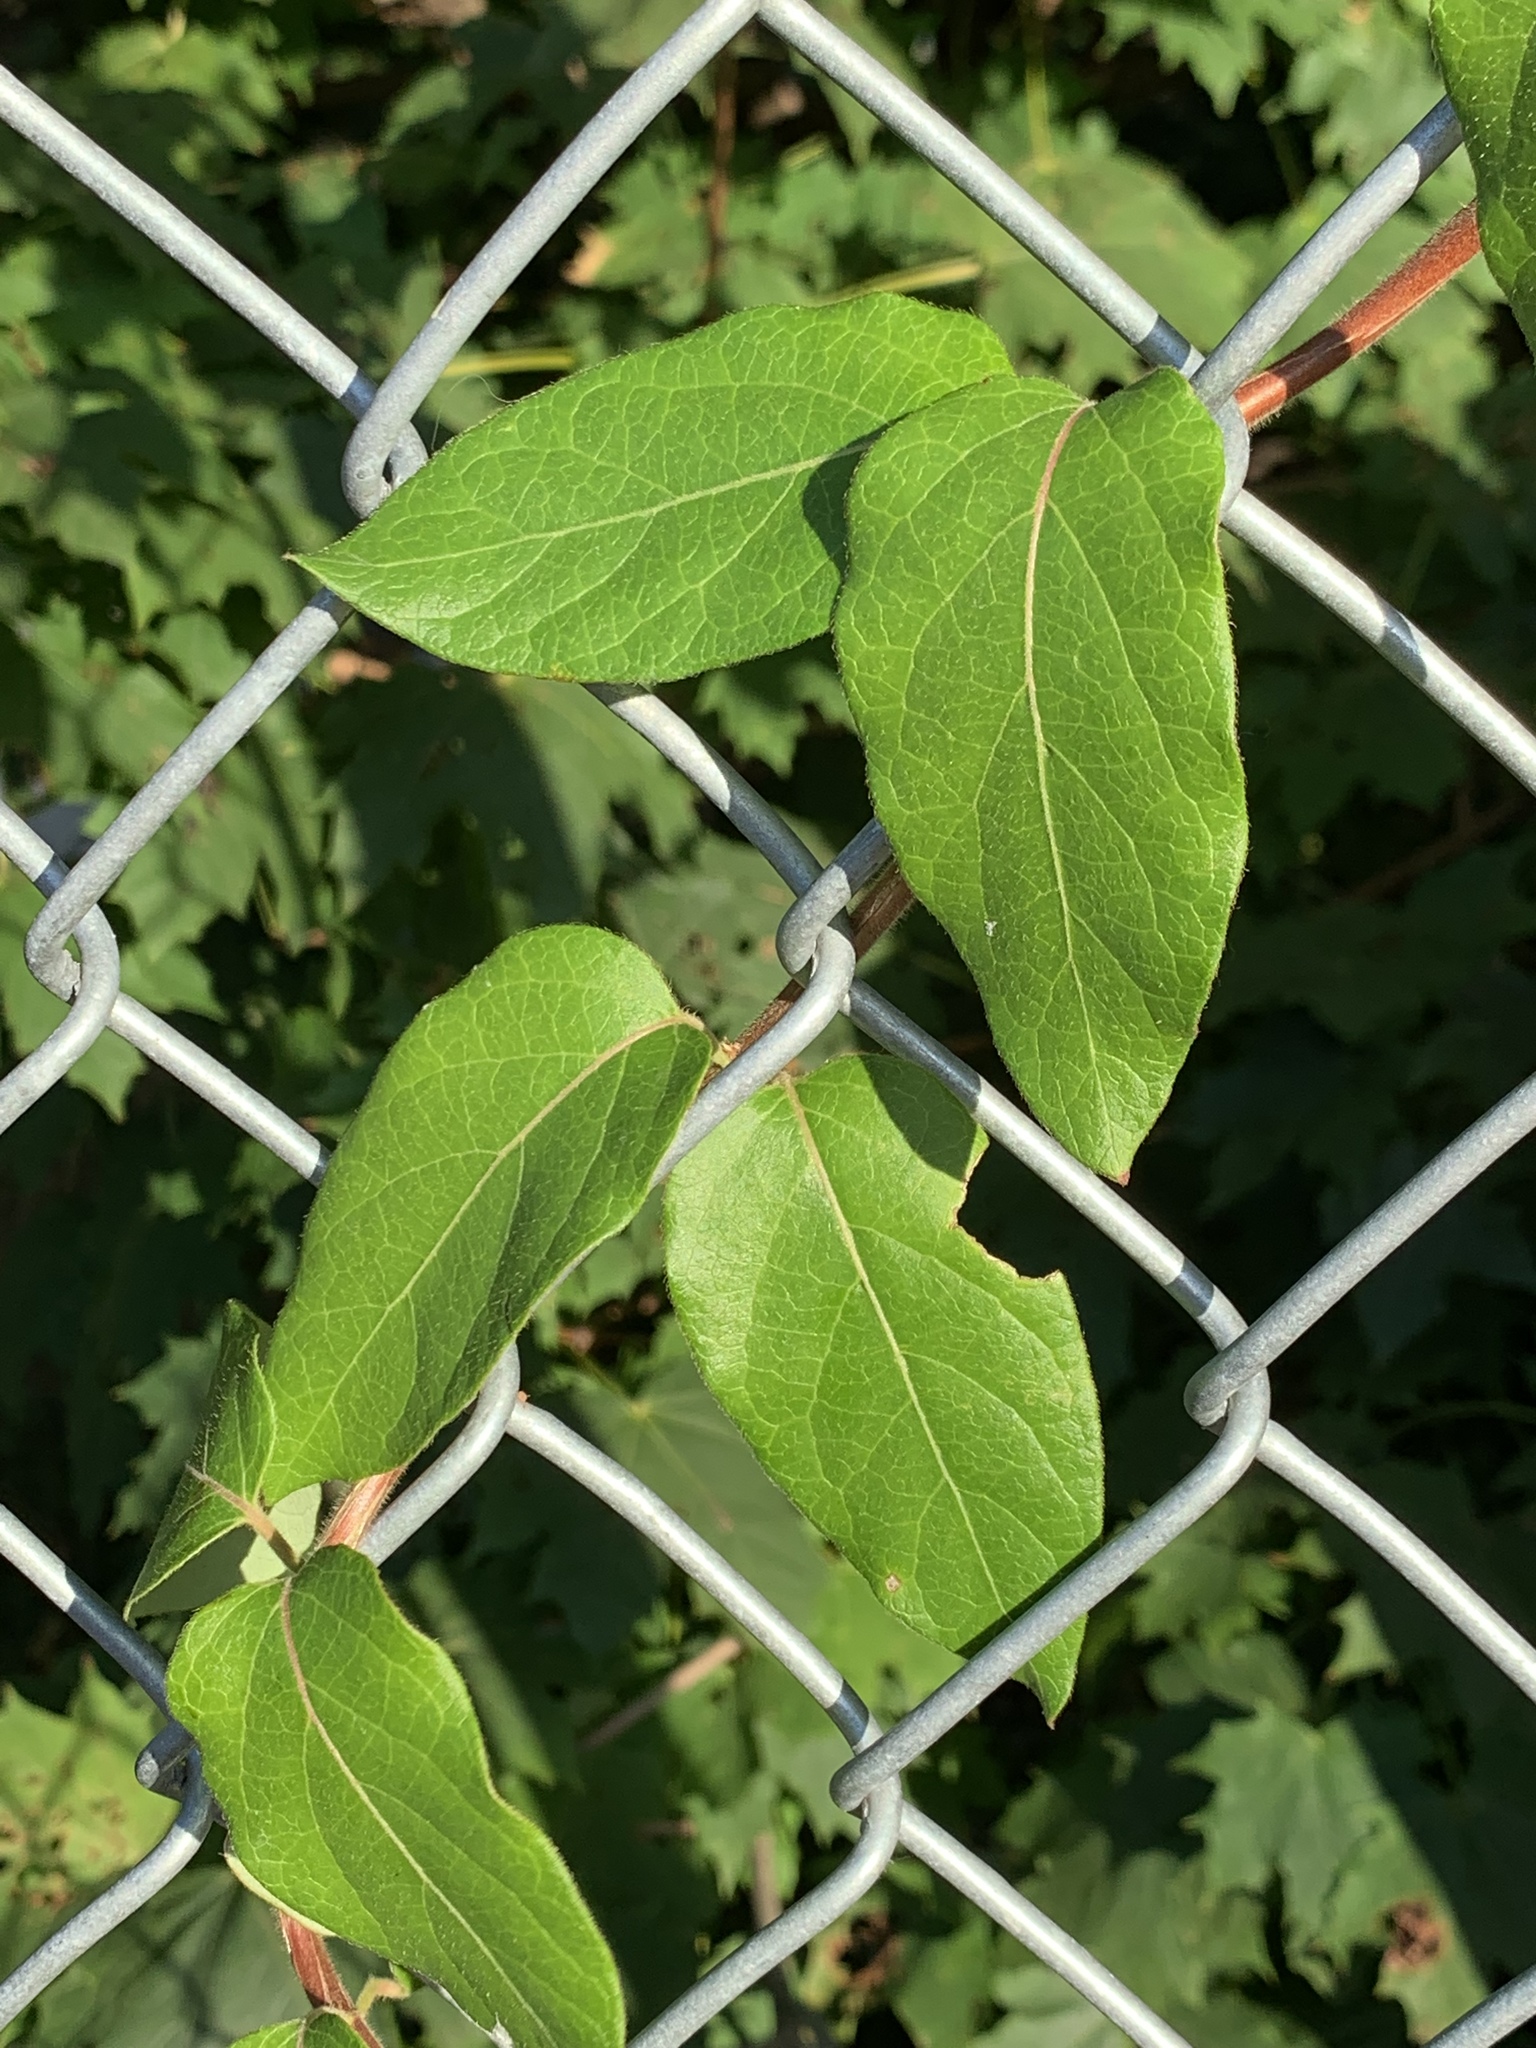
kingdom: Plantae
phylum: Tracheophyta
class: Magnoliopsida
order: Dipsacales
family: Caprifoliaceae
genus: Lonicera
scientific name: Lonicera japonica
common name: Japanese honeysuckle
